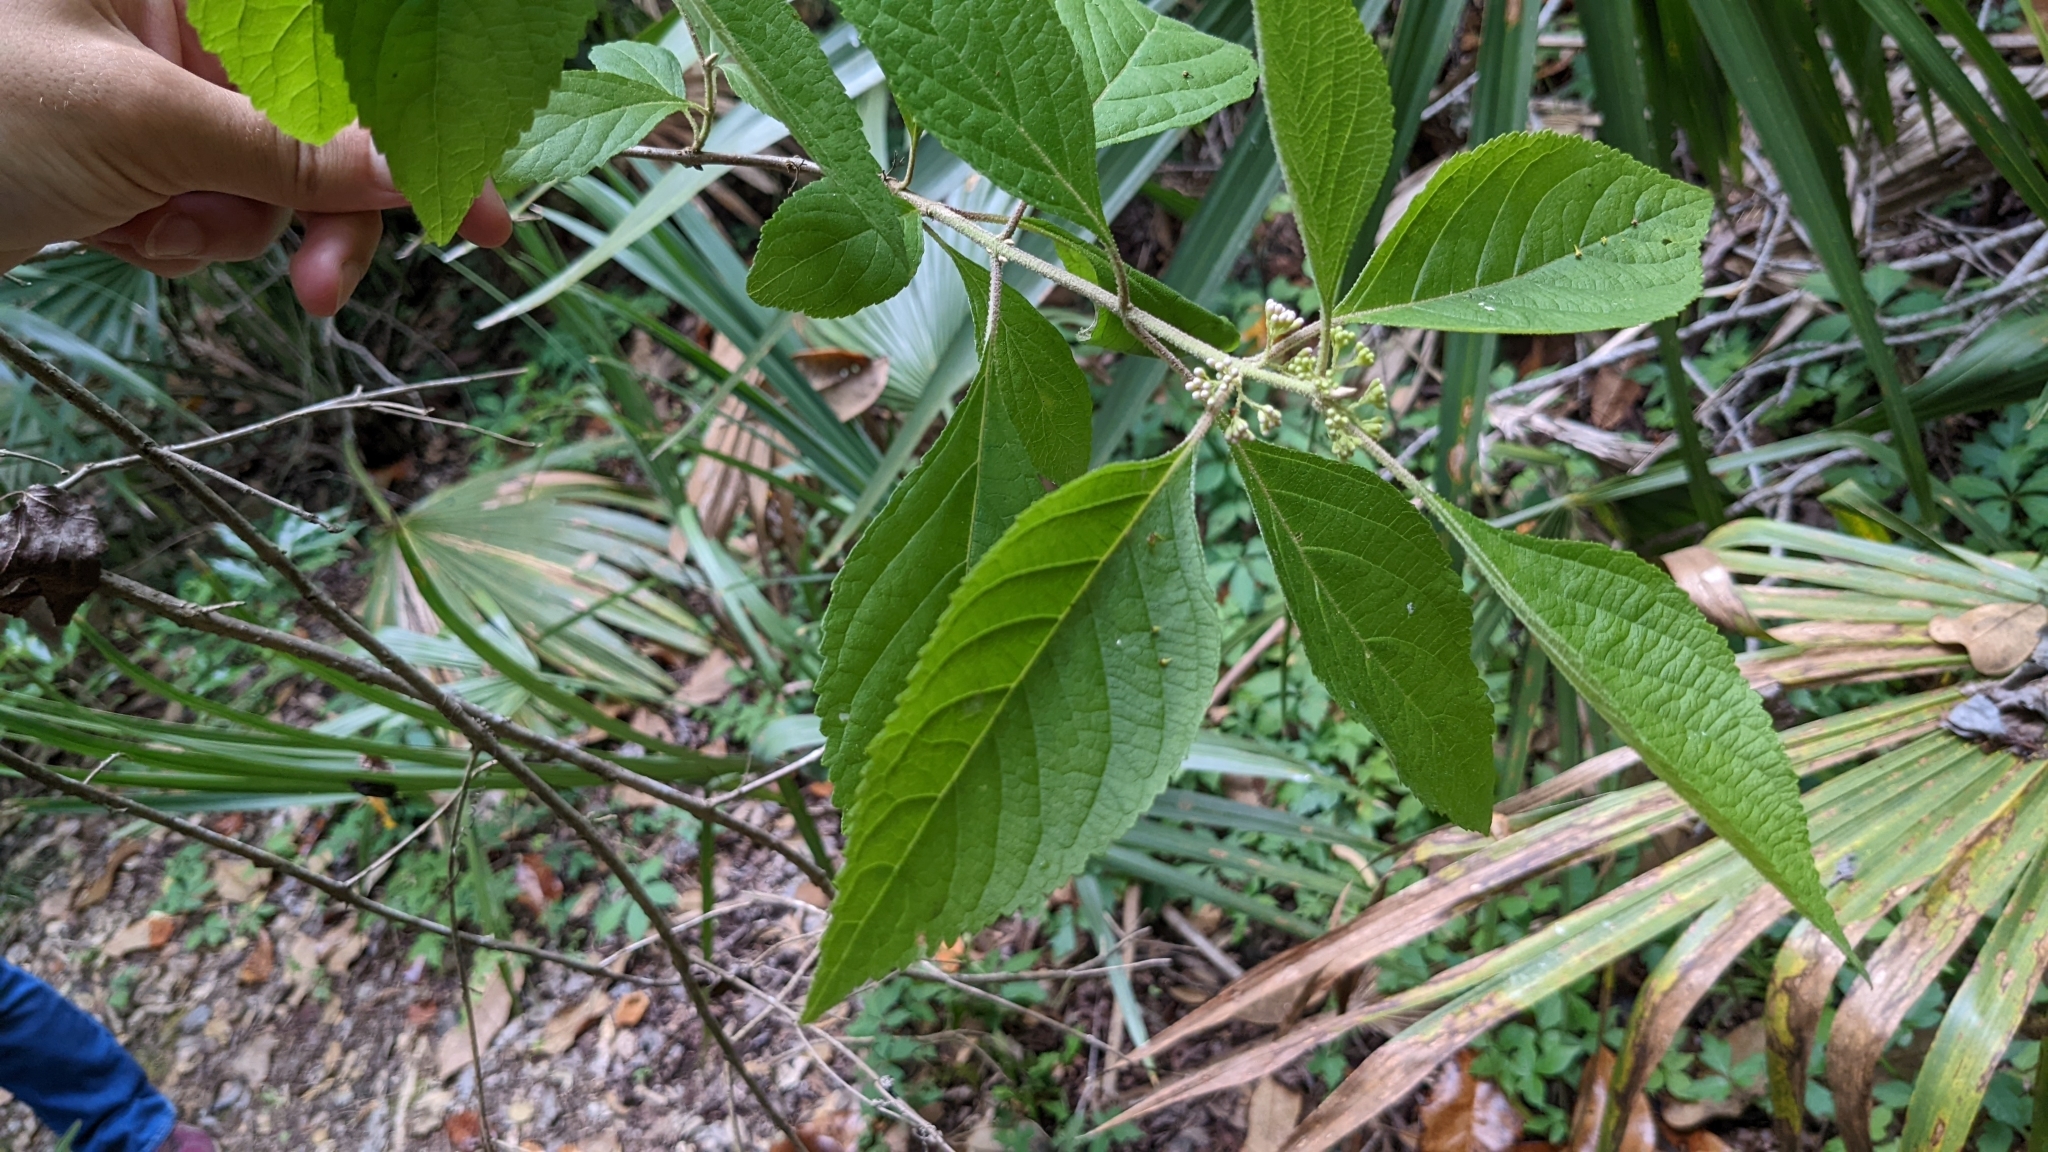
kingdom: Plantae
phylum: Tracheophyta
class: Magnoliopsida
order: Lamiales
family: Lamiaceae
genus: Callicarpa
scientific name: Callicarpa americana
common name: American beautyberry
